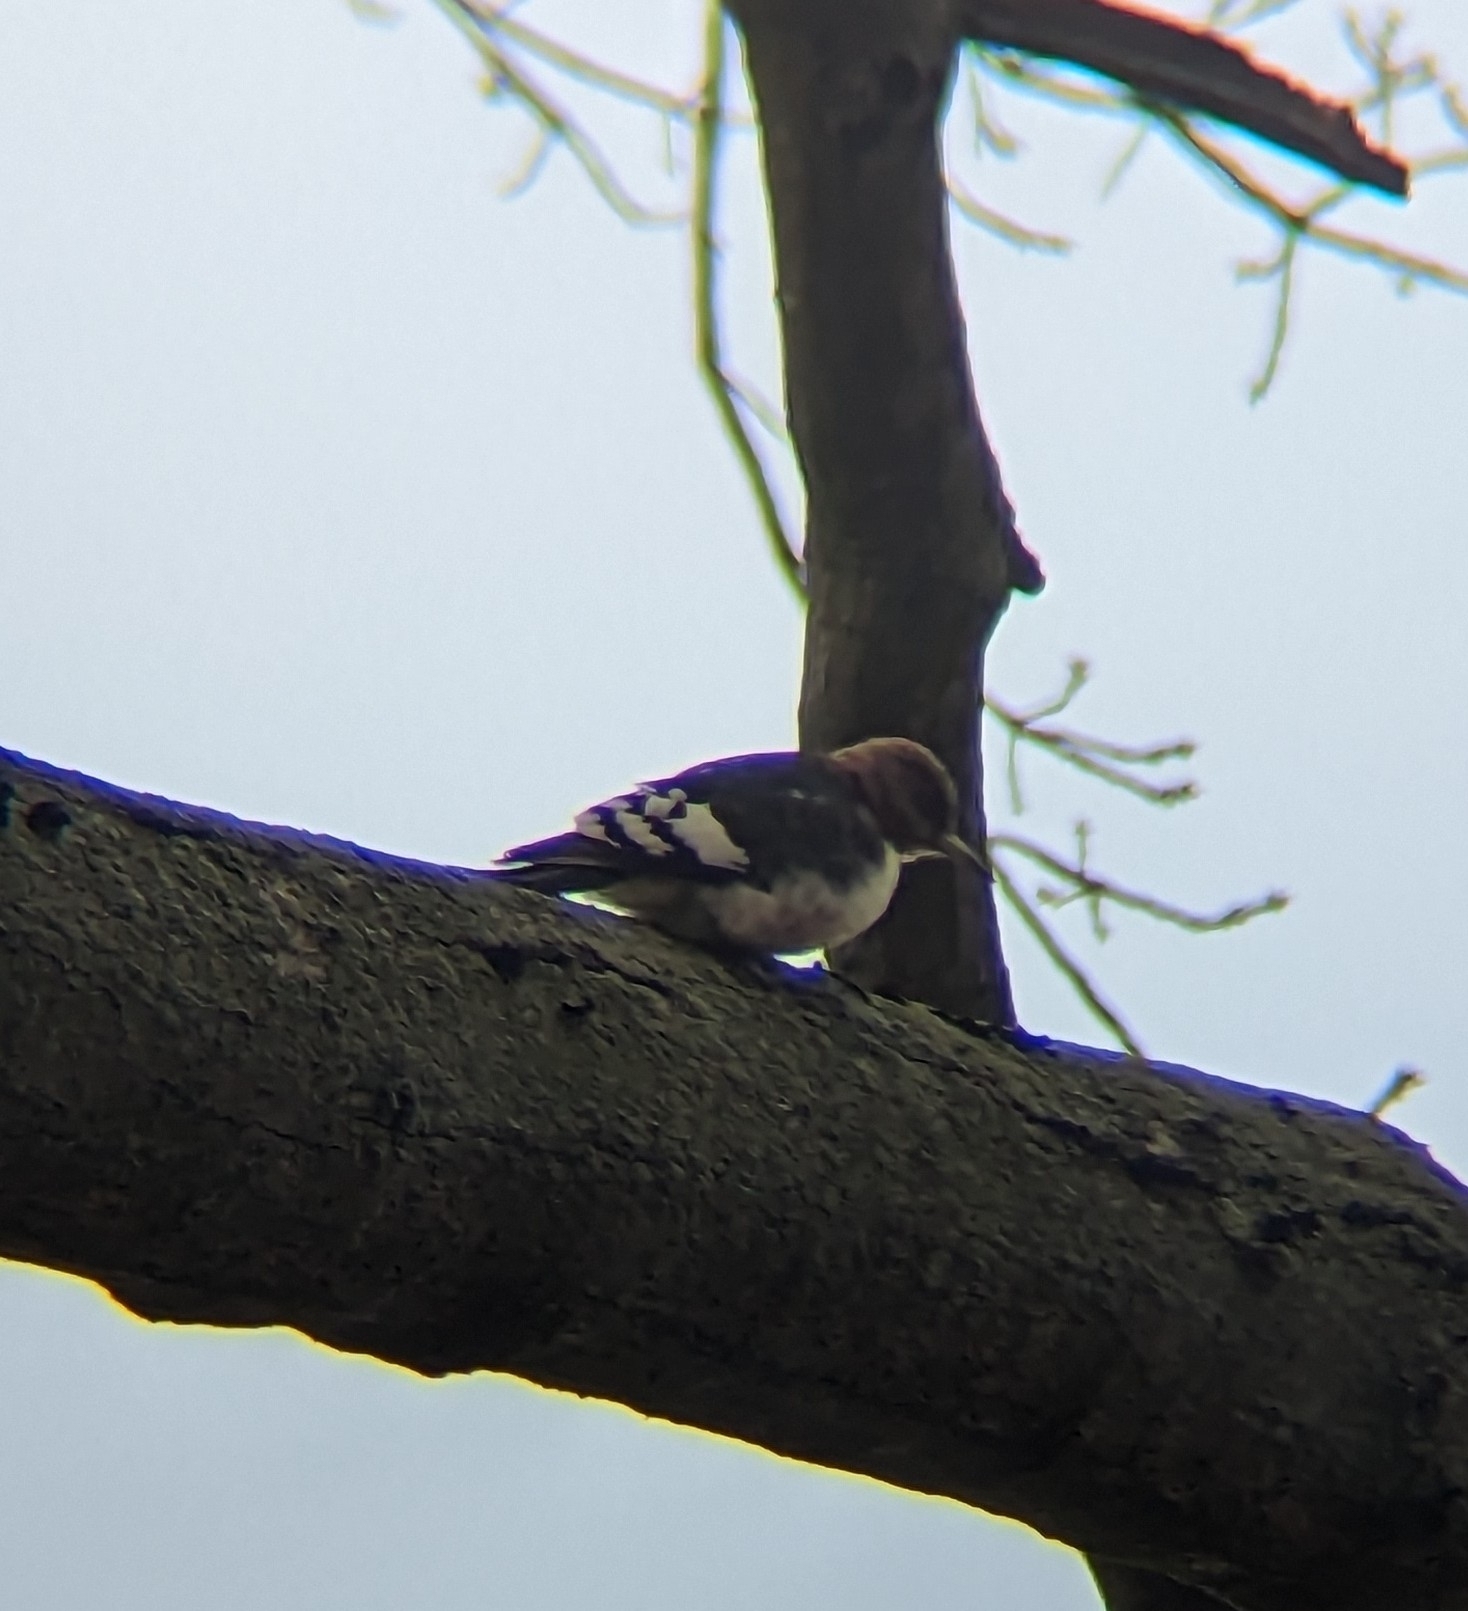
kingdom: Animalia
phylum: Chordata
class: Aves
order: Piciformes
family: Picidae
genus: Melanerpes
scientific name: Melanerpes erythrocephalus
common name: Red-headed woodpecker
